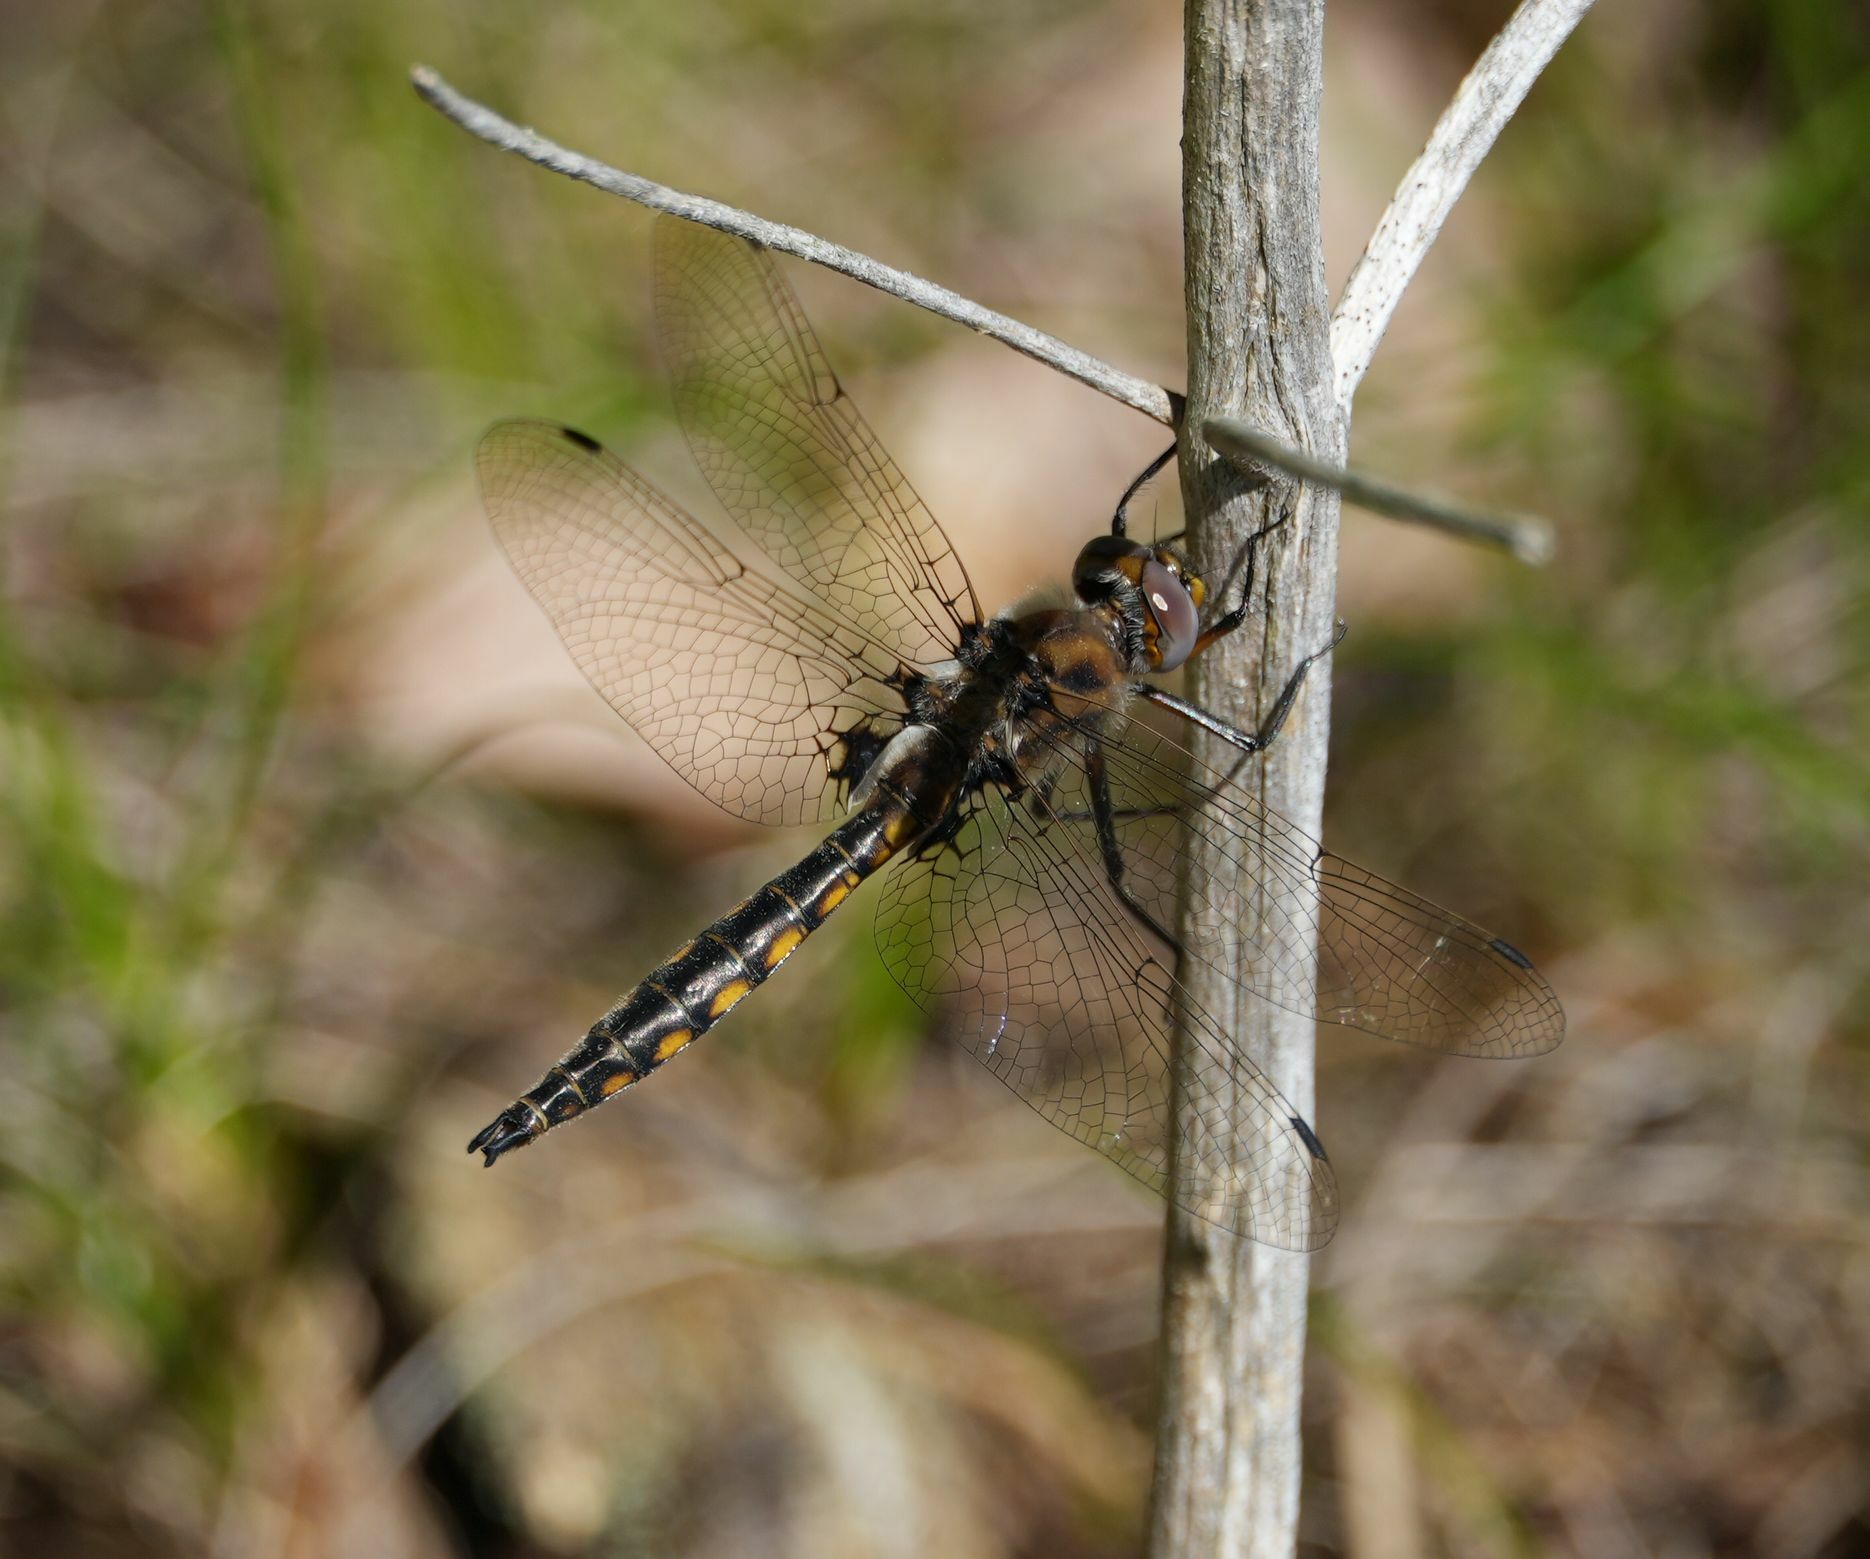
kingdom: Animalia
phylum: Arthropoda
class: Insecta
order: Odonata
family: Corduliidae
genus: Epitheca
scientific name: Epitheca canis
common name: Beaverpond baskettail
